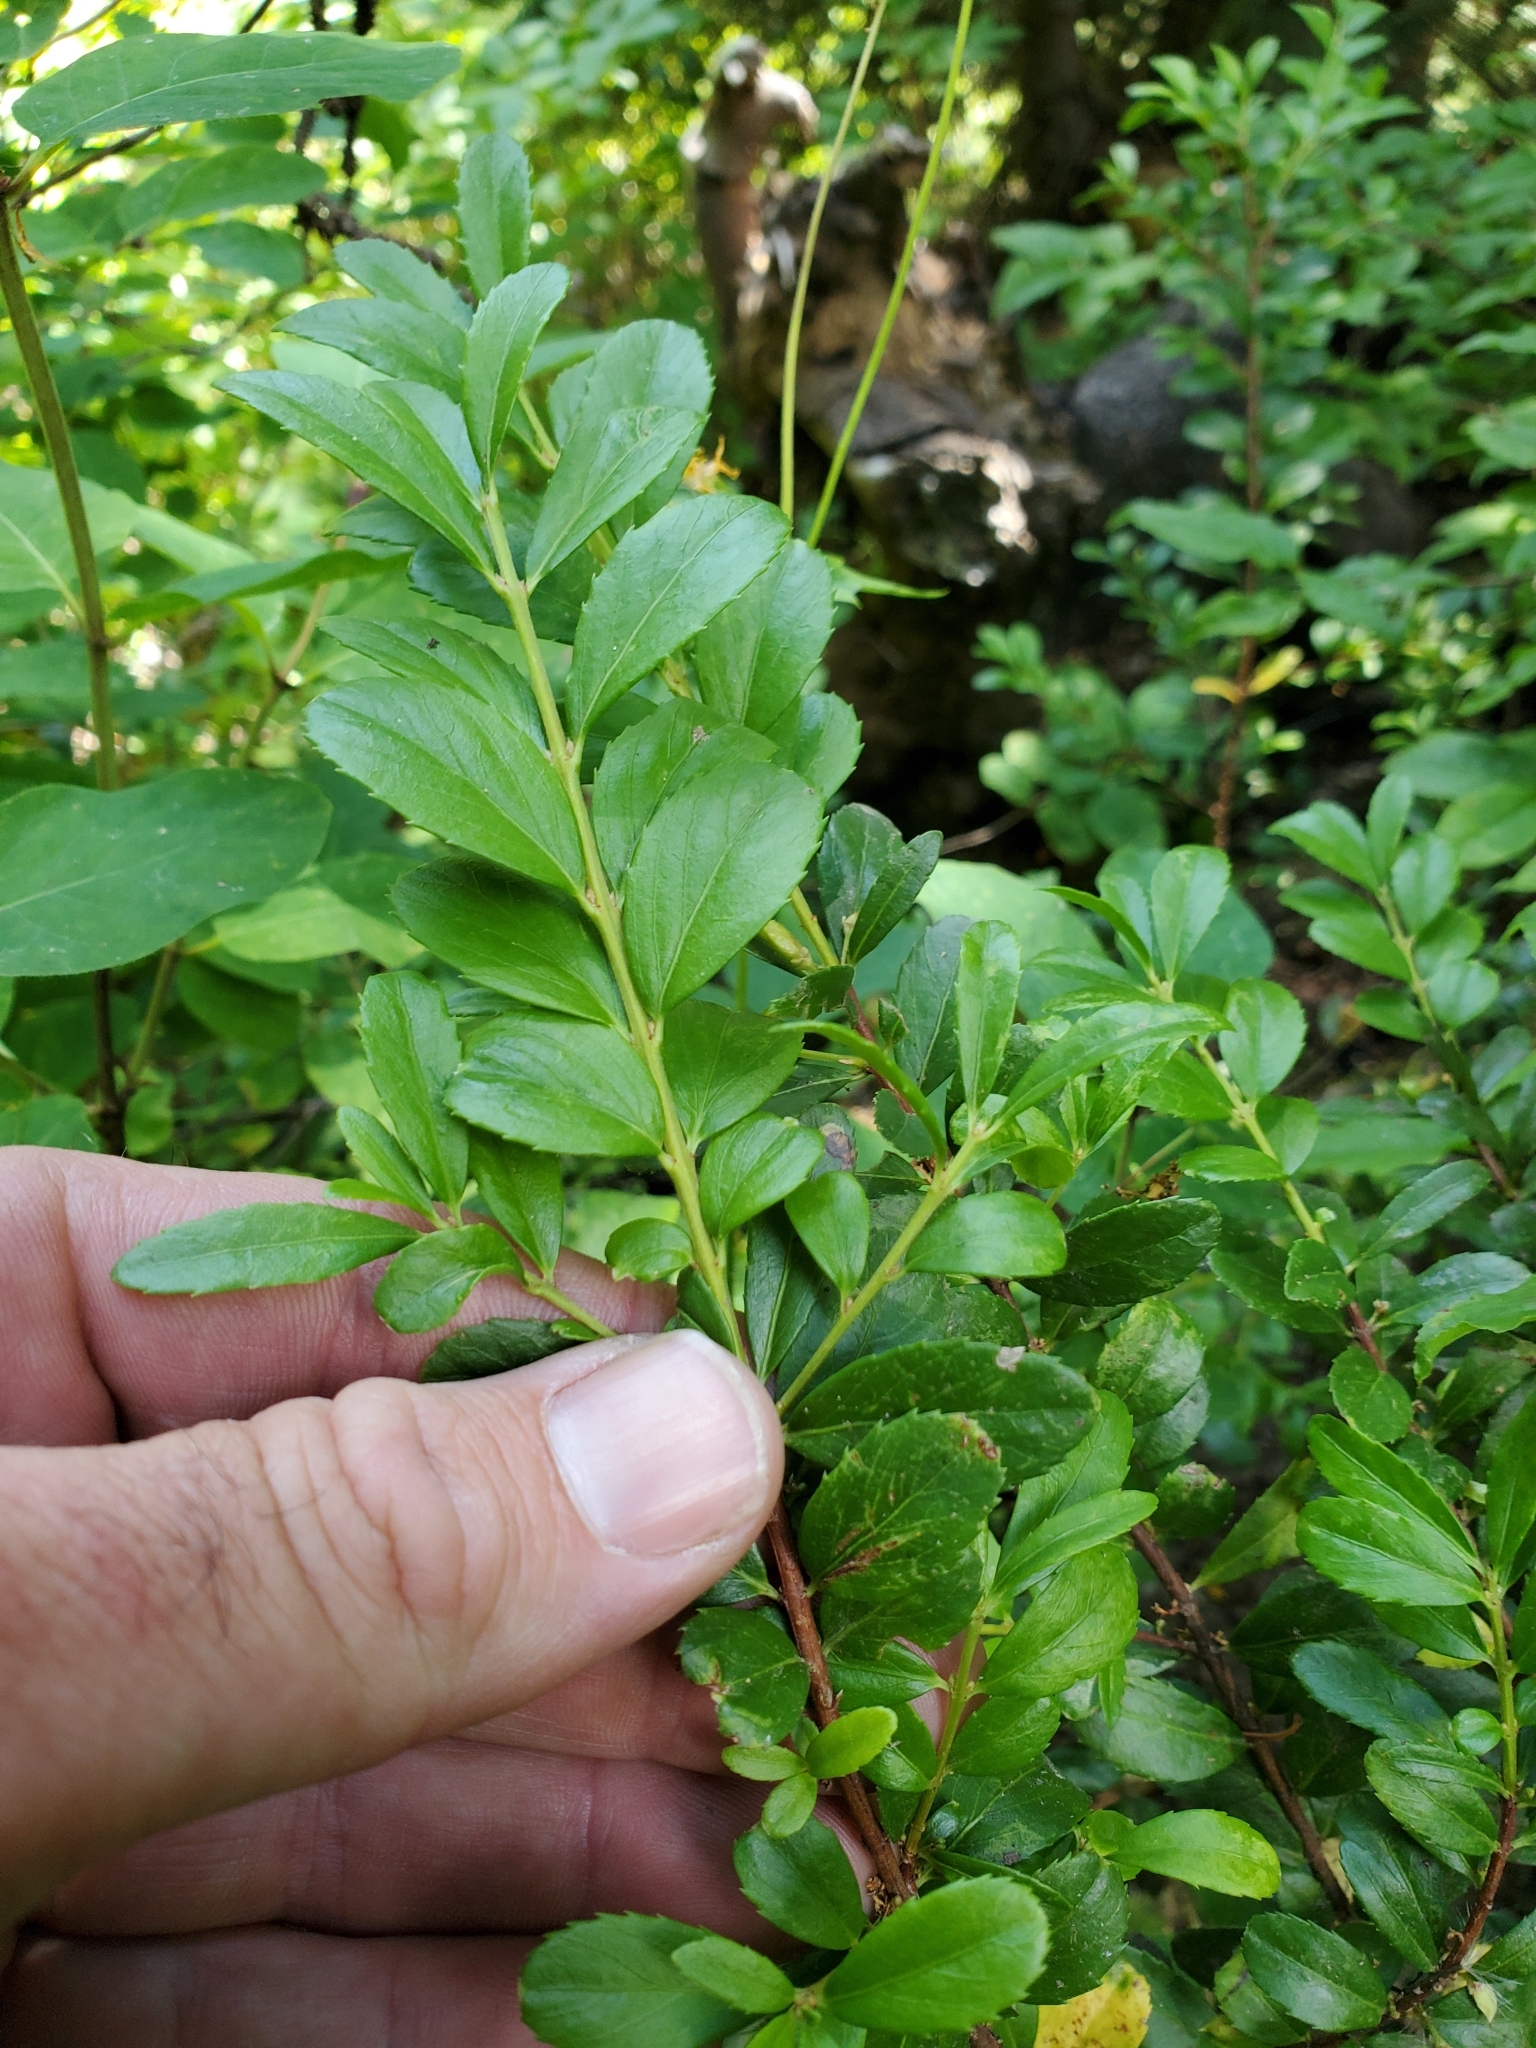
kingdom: Plantae
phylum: Tracheophyta
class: Magnoliopsida
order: Celastrales
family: Celastraceae
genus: Paxistima
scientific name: Paxistima myrsinites
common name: Mountain-lover
